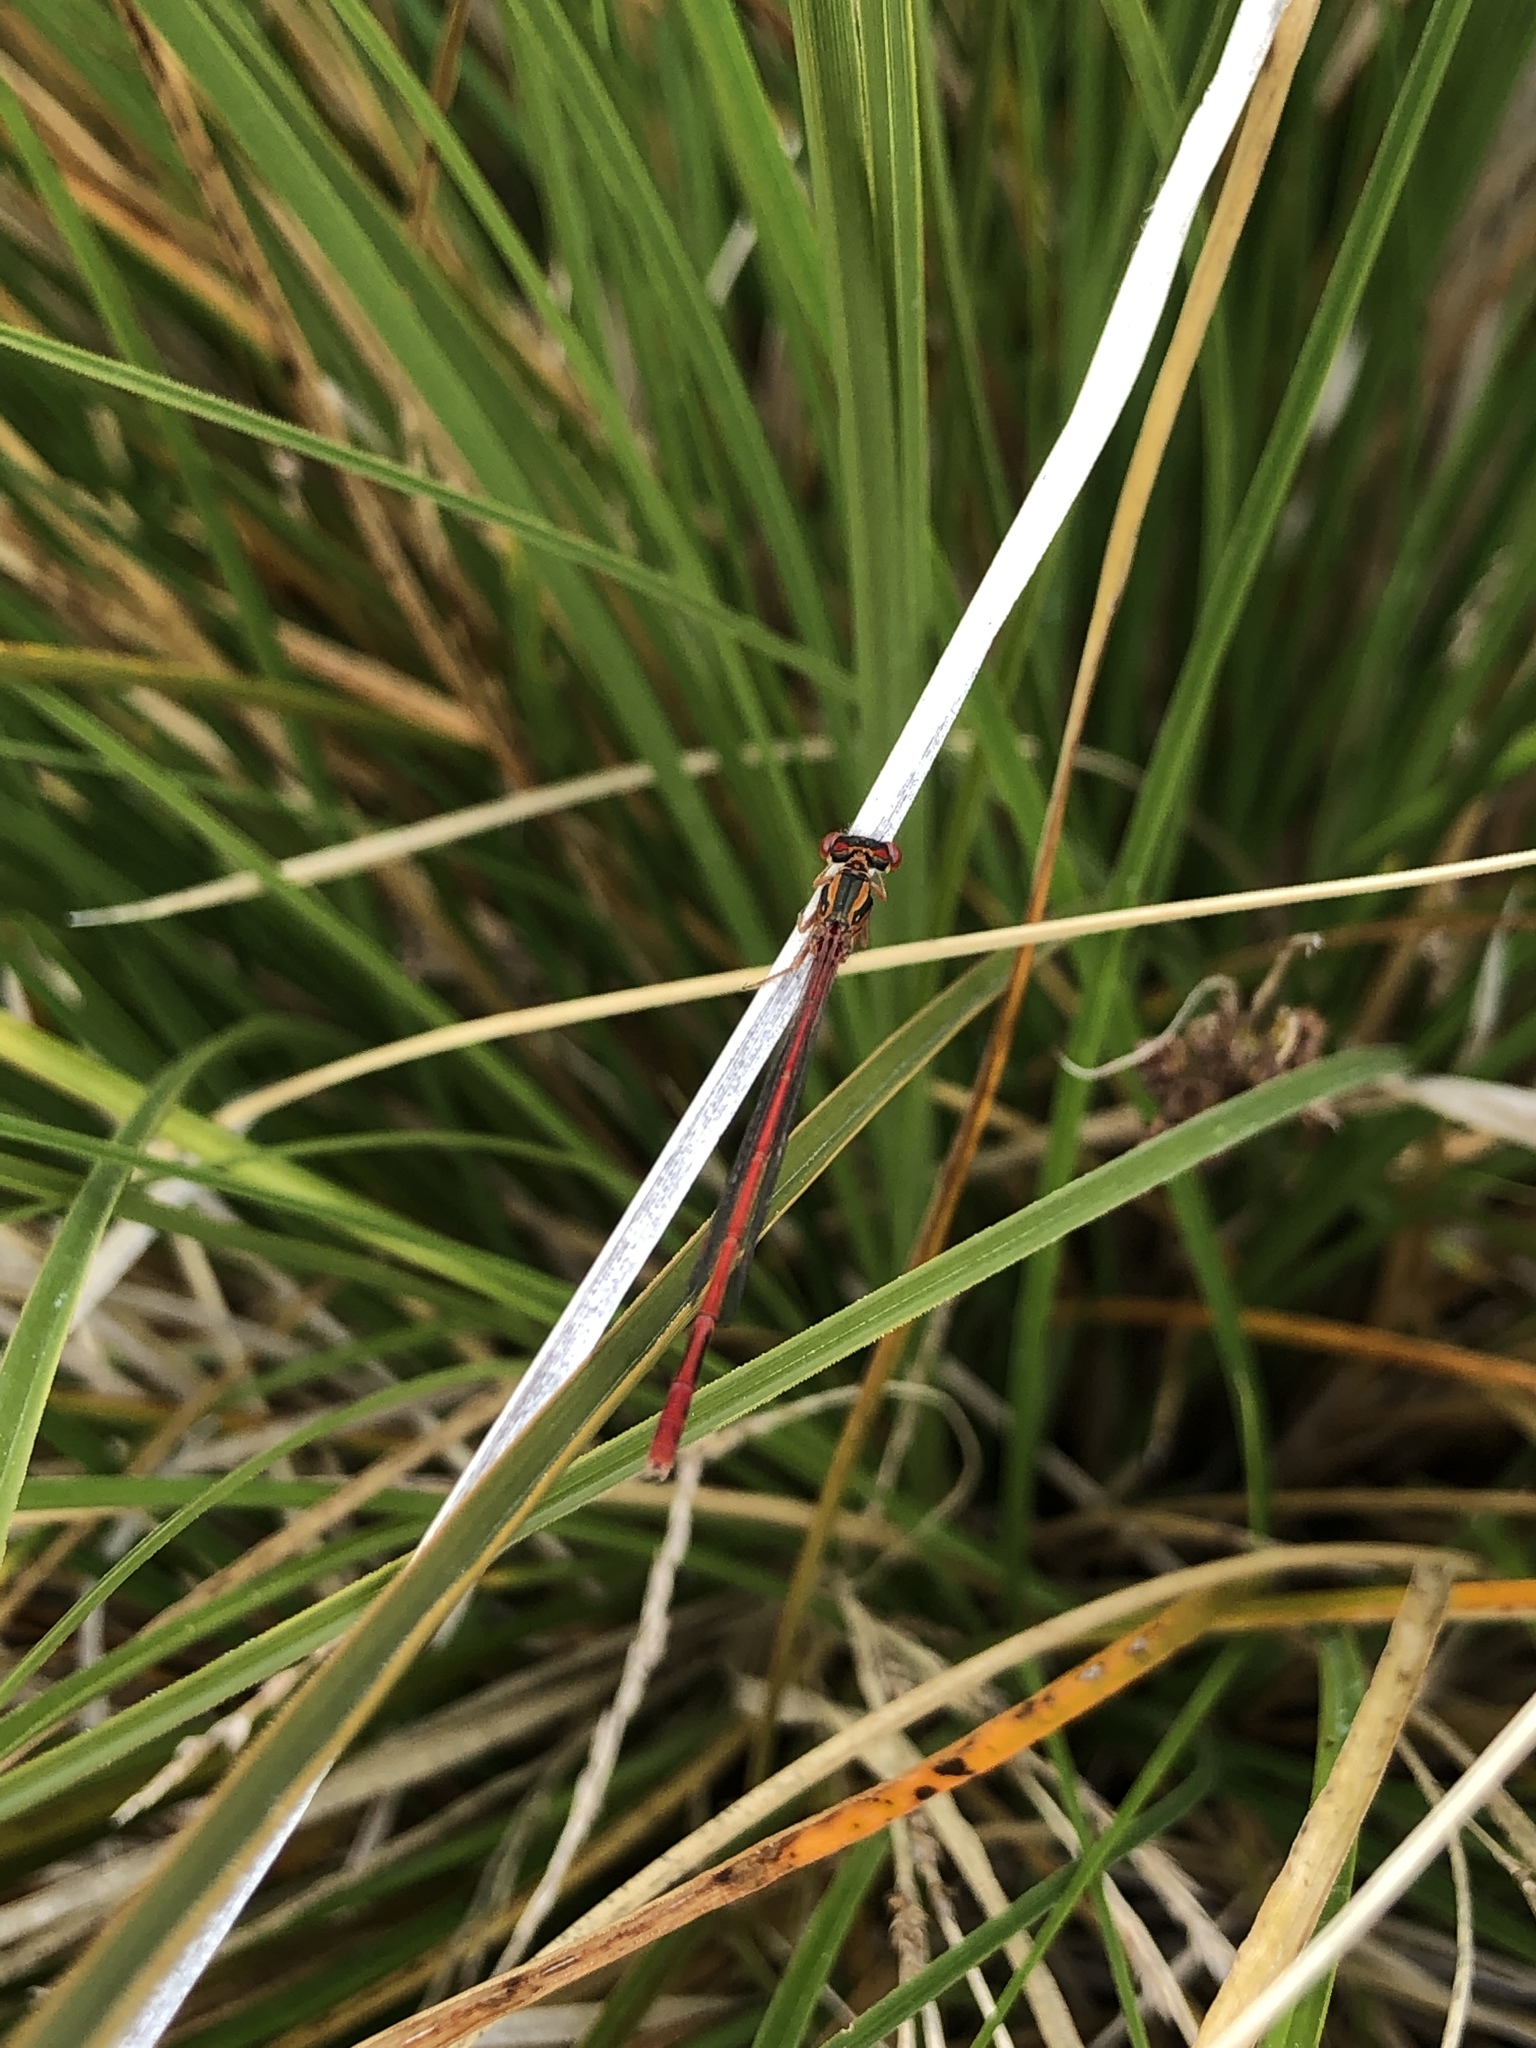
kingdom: Animalia
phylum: Arthropoda
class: Insecta
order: Odonata
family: Coenagrionidae
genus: Xanthocnemis
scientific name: Xanthocnemis zealandica
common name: Common redcoat damselfly
